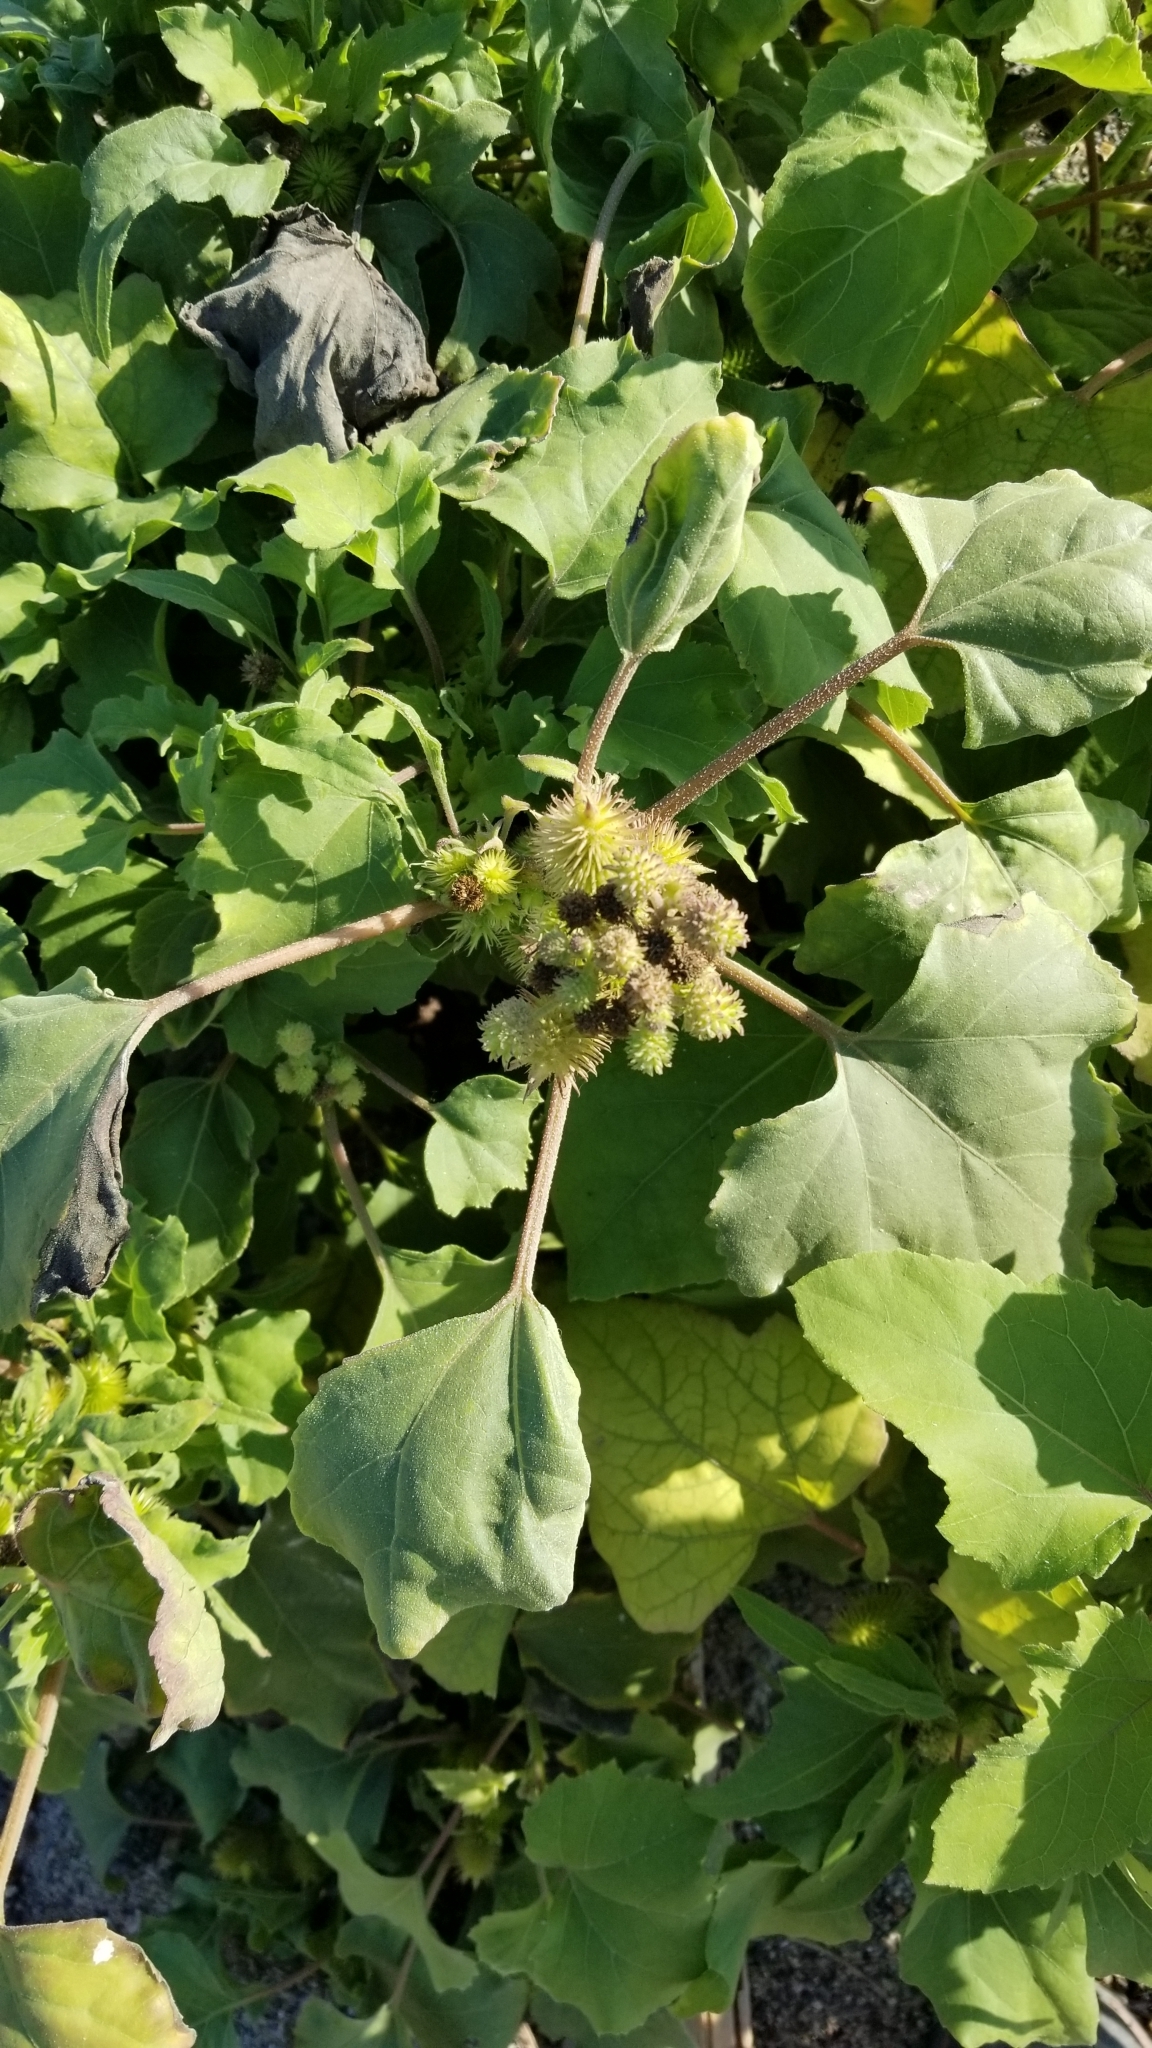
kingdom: Plantae
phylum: Tracheophyta
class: Magnoliopsida
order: Asterales
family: Asteraceae
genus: Xanthium
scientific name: Xanthium strumarium
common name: Rough cocklebur
